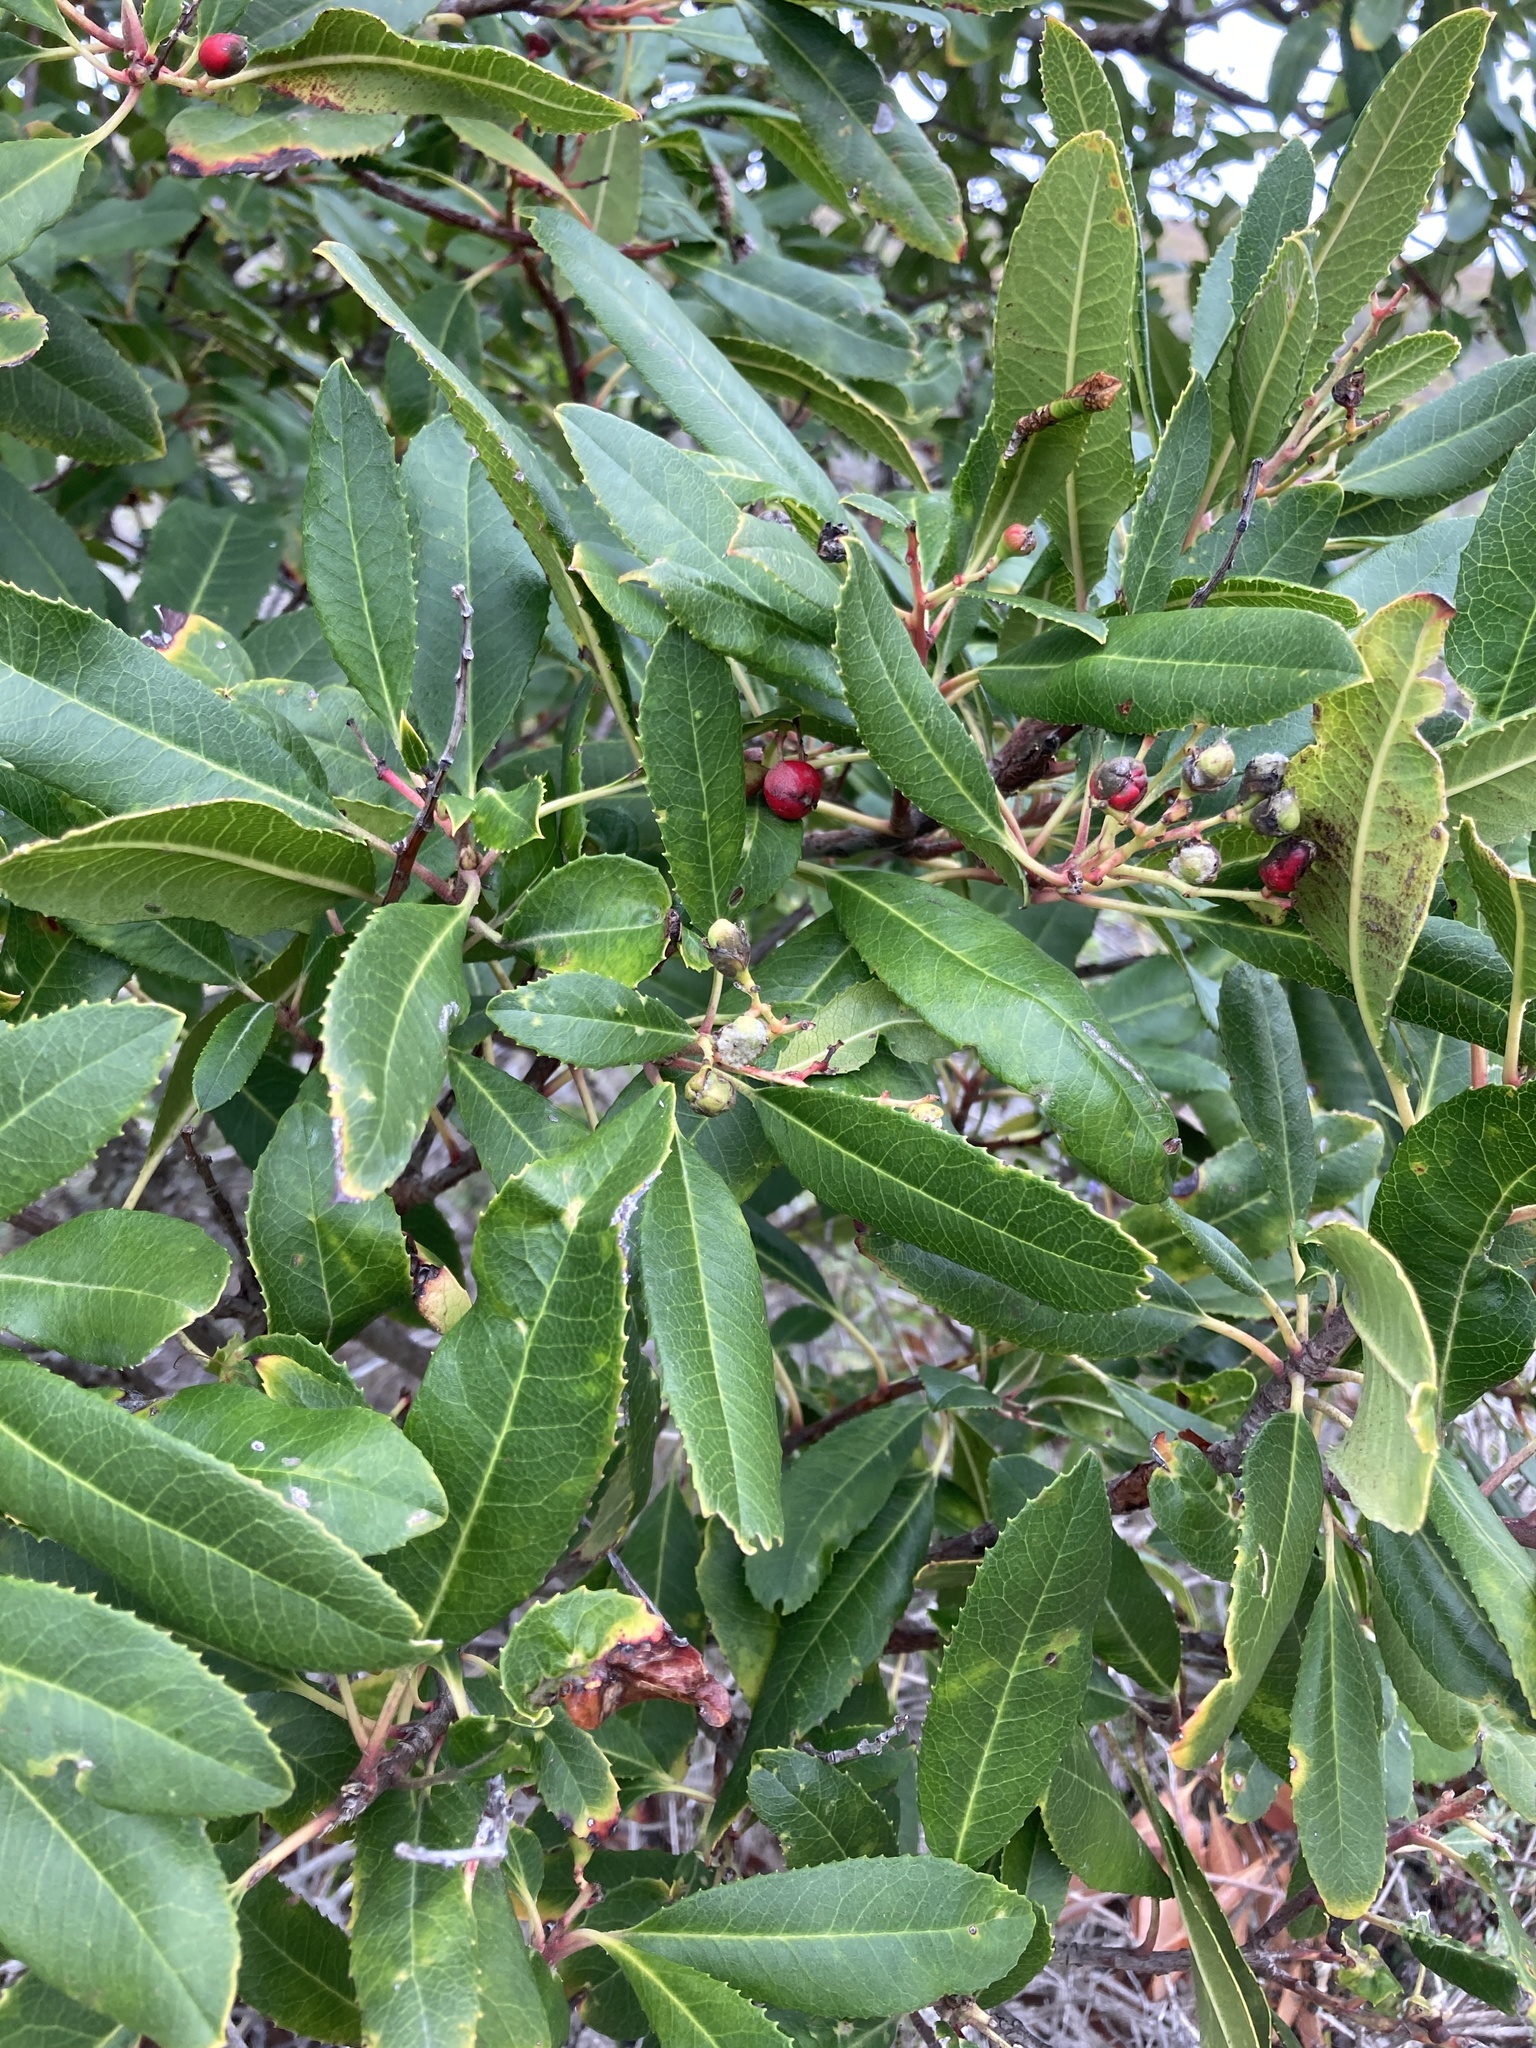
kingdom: Plantae
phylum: Tracheophyta
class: Magnoliopsida
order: Rosales
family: Rosaceae
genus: Heteromeles
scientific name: Heteromeles arbutifolia
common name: California-holly
